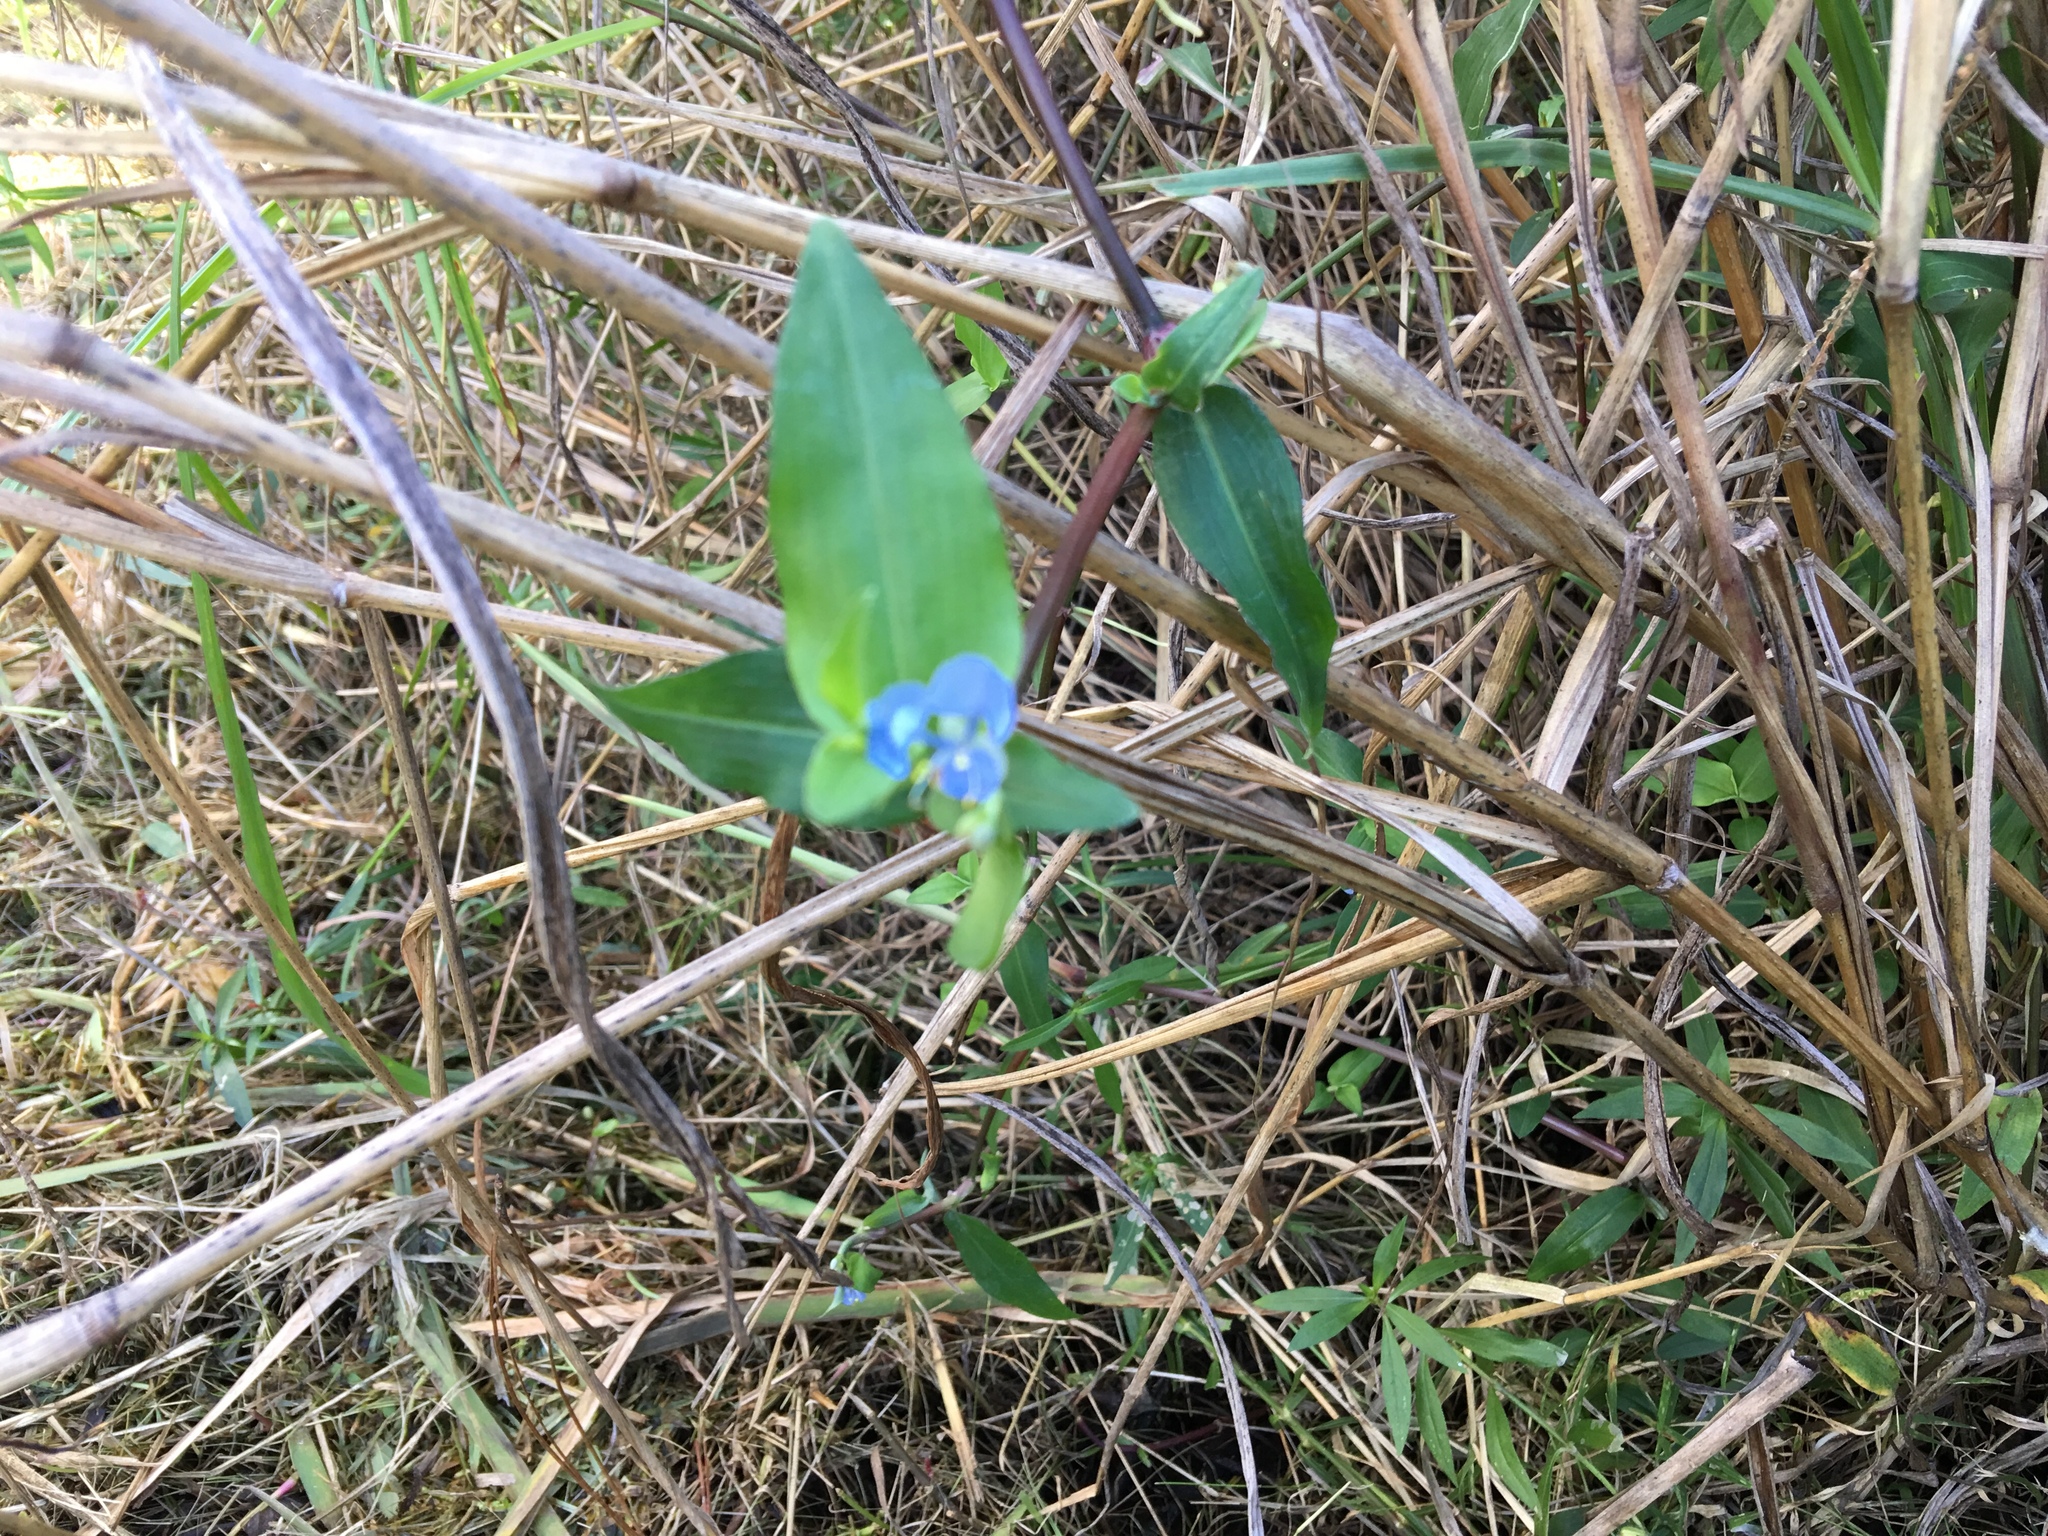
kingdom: Plantae
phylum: Tracheophyta
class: Liliopsida
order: Commelinales
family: Commelinaceae
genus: Commelina
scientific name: Commelina diffusa
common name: Climbing dayflower
